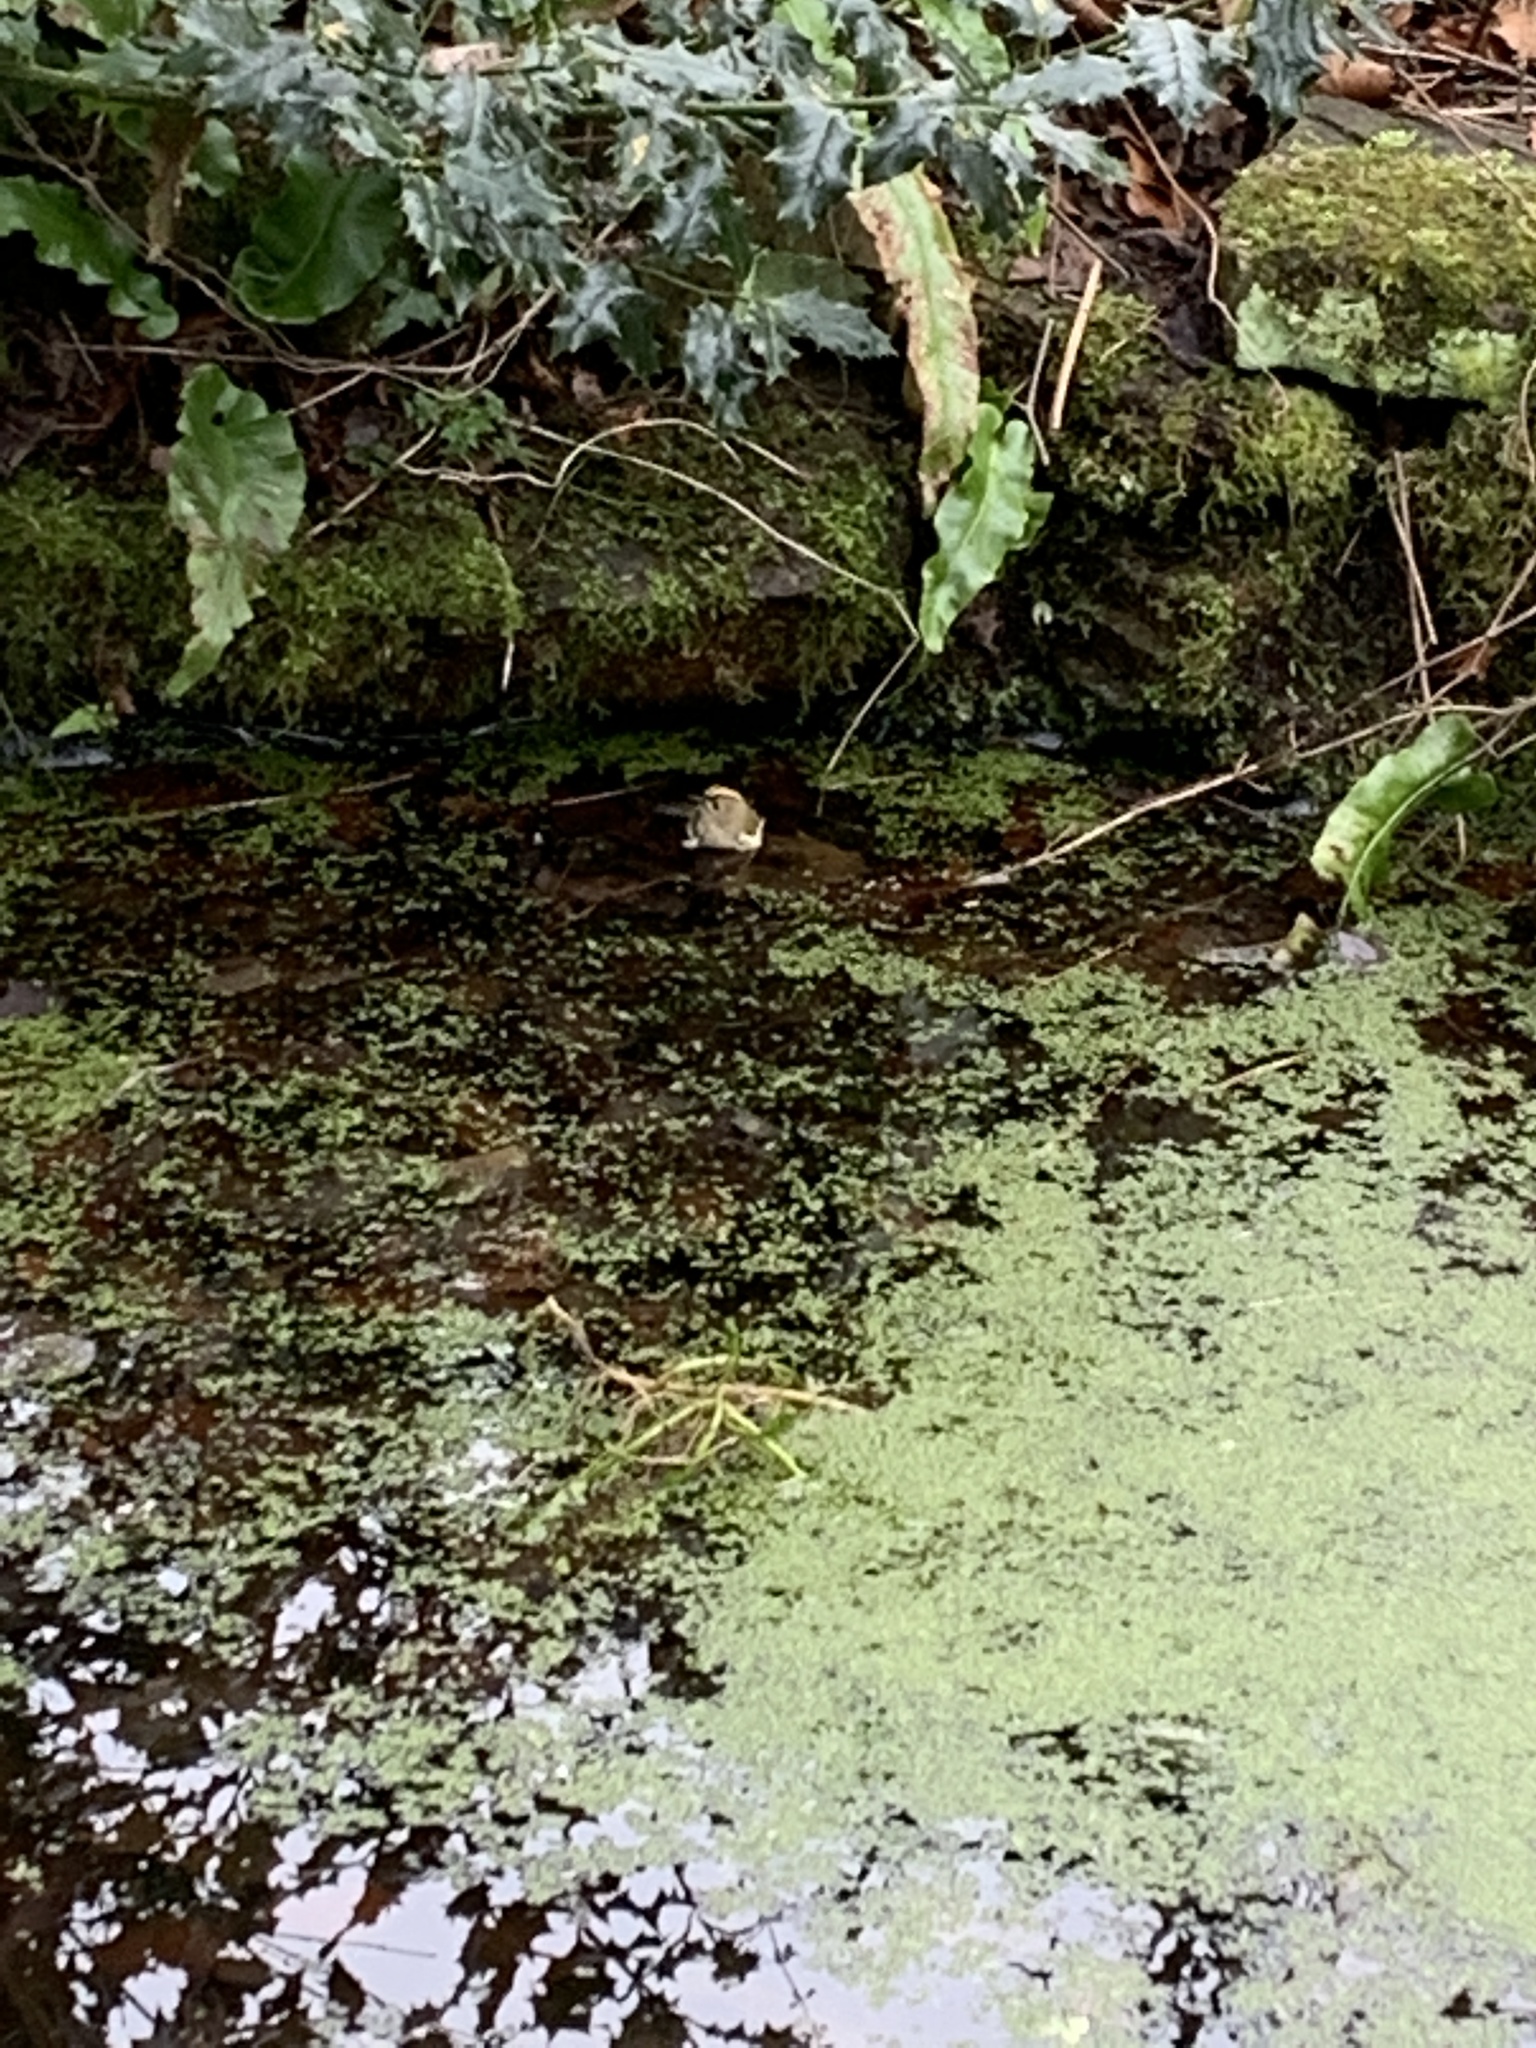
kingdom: Animalia
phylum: Chordata
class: Aves
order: Passeriformes
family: Regulidae
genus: Regulus
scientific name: Regulus regulus
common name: Goldcrest
